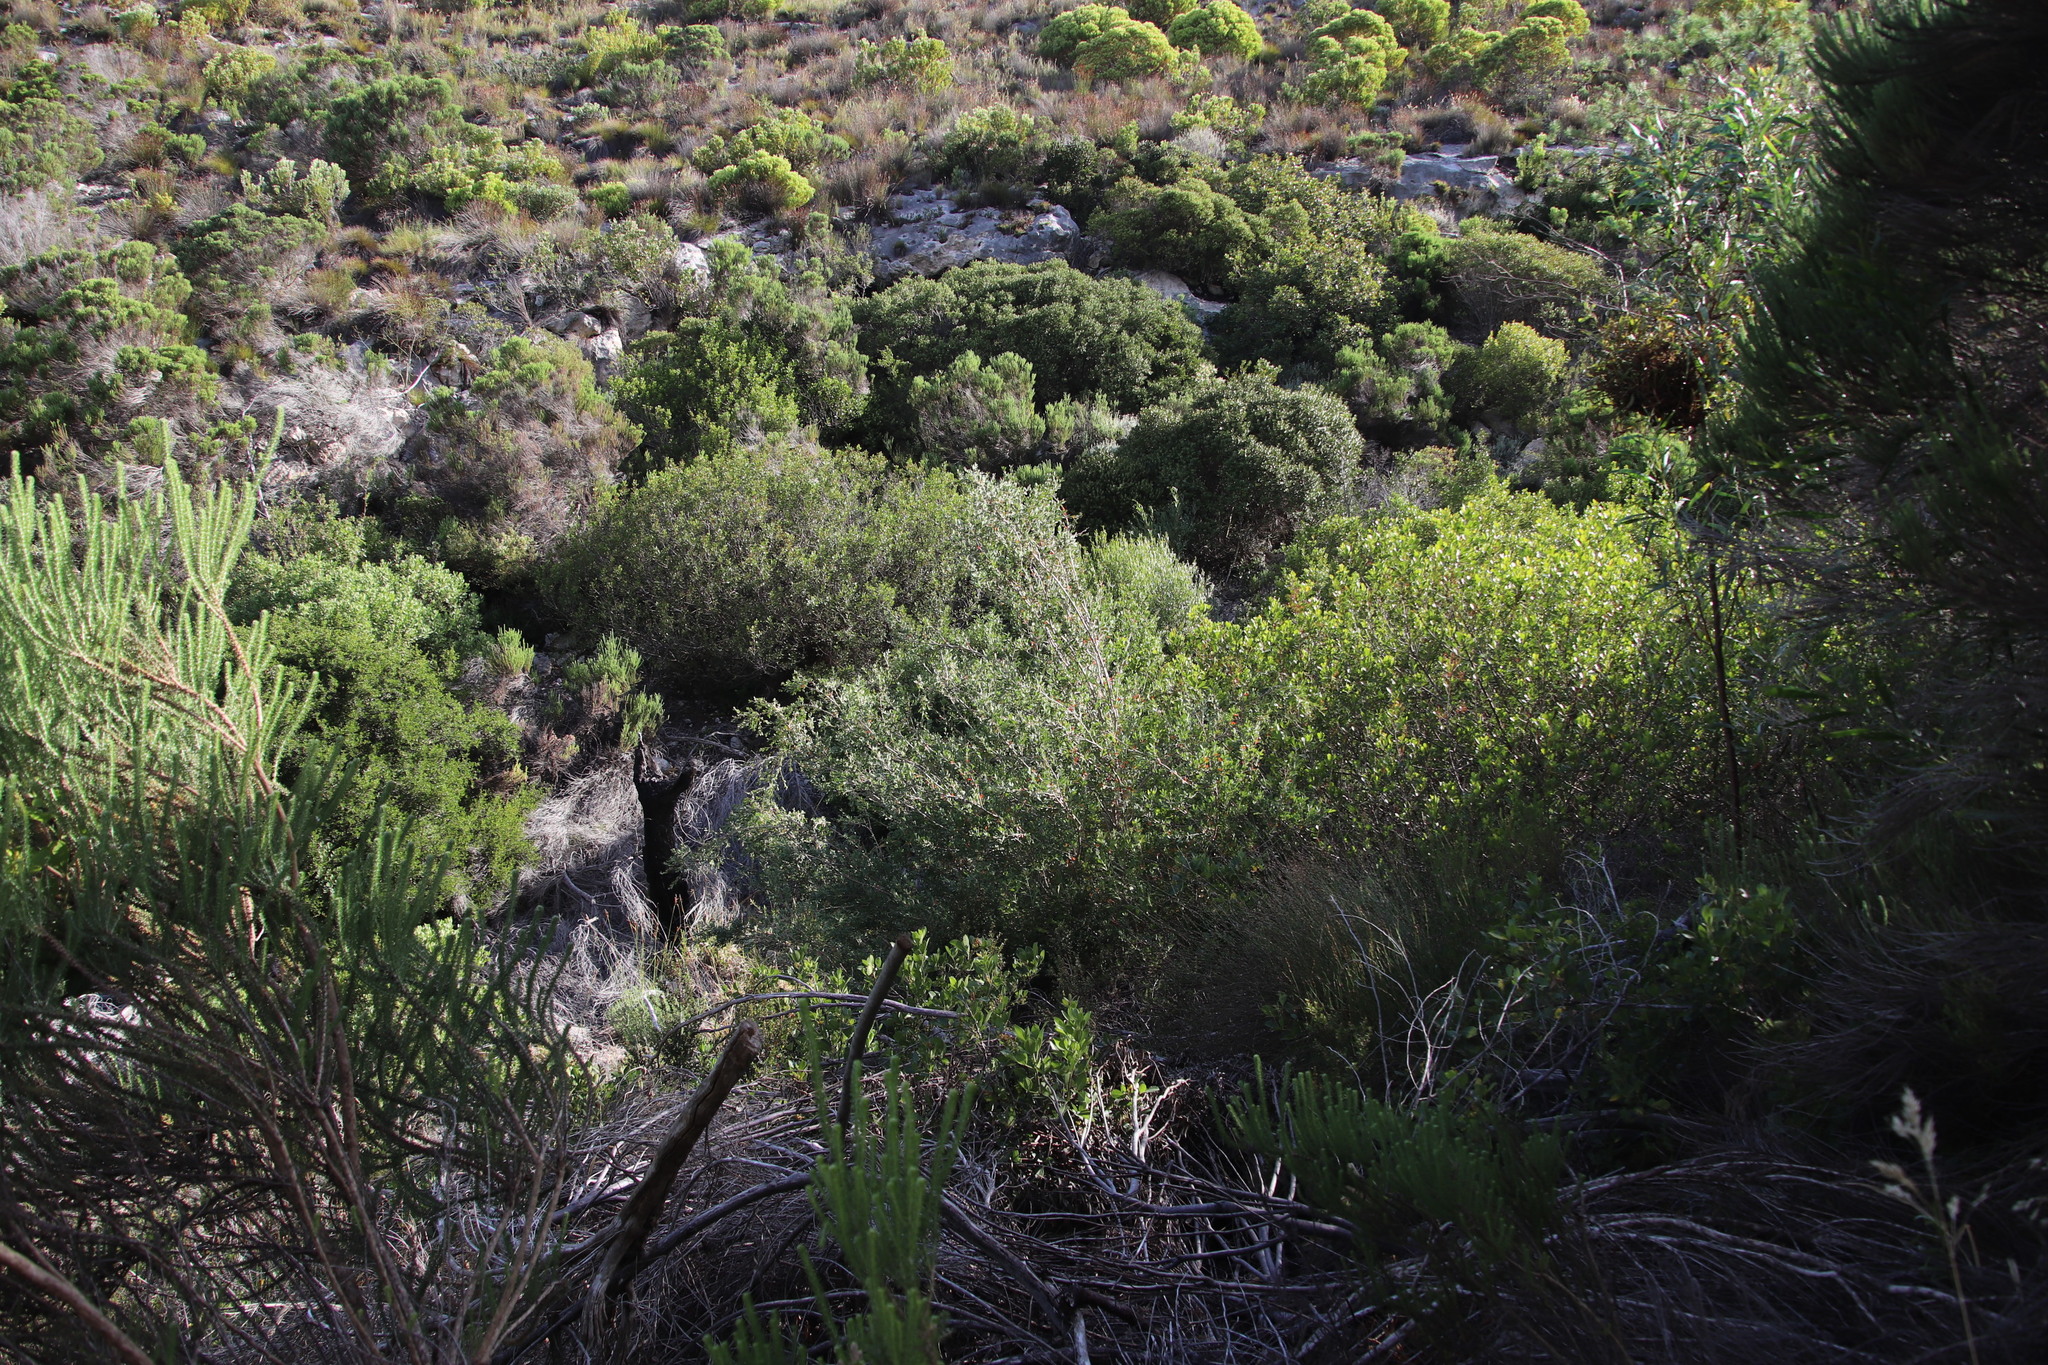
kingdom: Plantae
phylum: Tracheophyta
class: Magnoliopsida
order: Myrtales
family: Myrtaceae
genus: Leptospermum
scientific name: Leptospermum laevigatum
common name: Australian teatree
